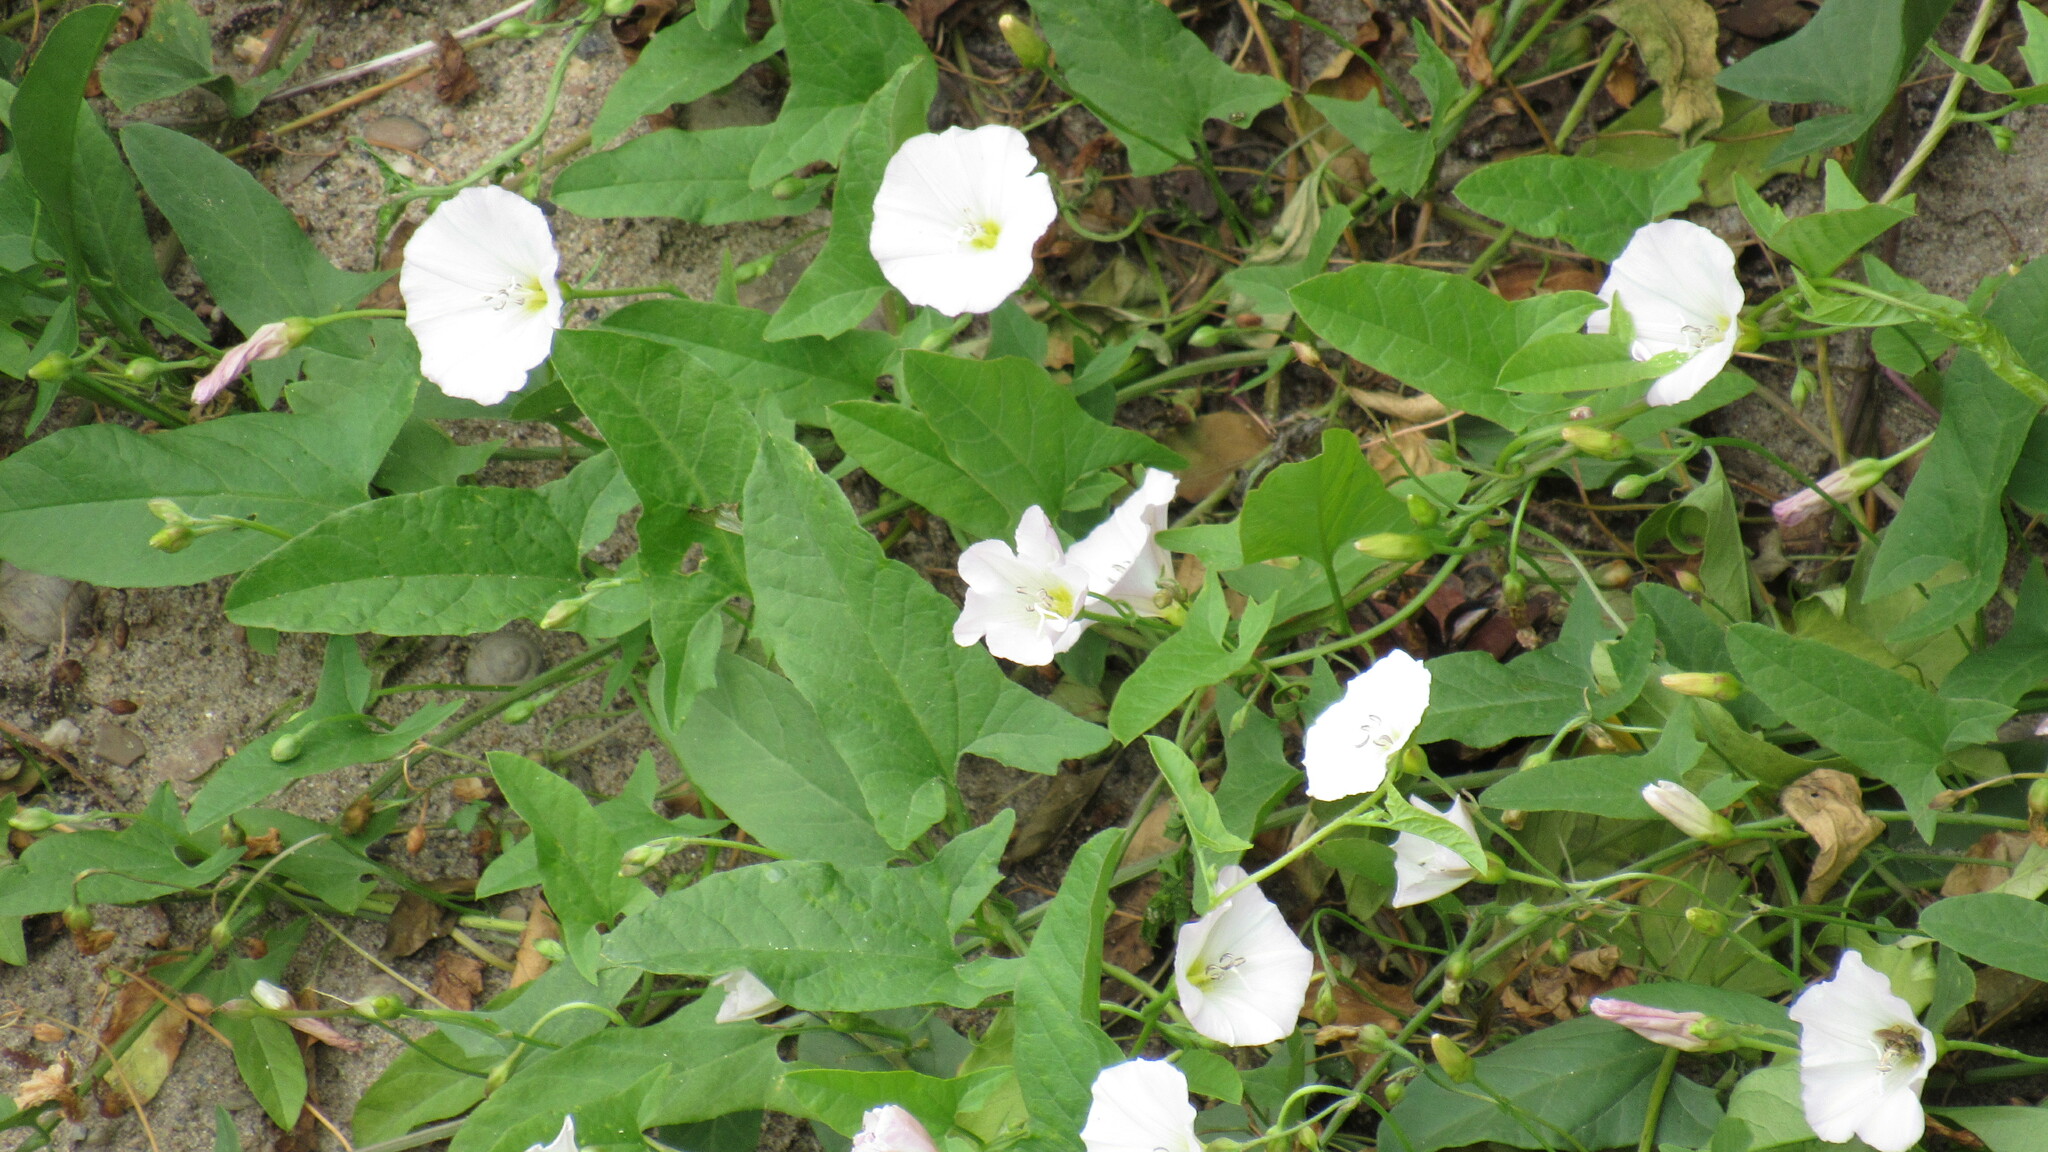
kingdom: Plantae
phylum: Tracheophyta
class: Magnoliopsida
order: Solanales
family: Convolvulaceae
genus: Convolvulus
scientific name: Convolvulus arvensis
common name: Field bindweed
